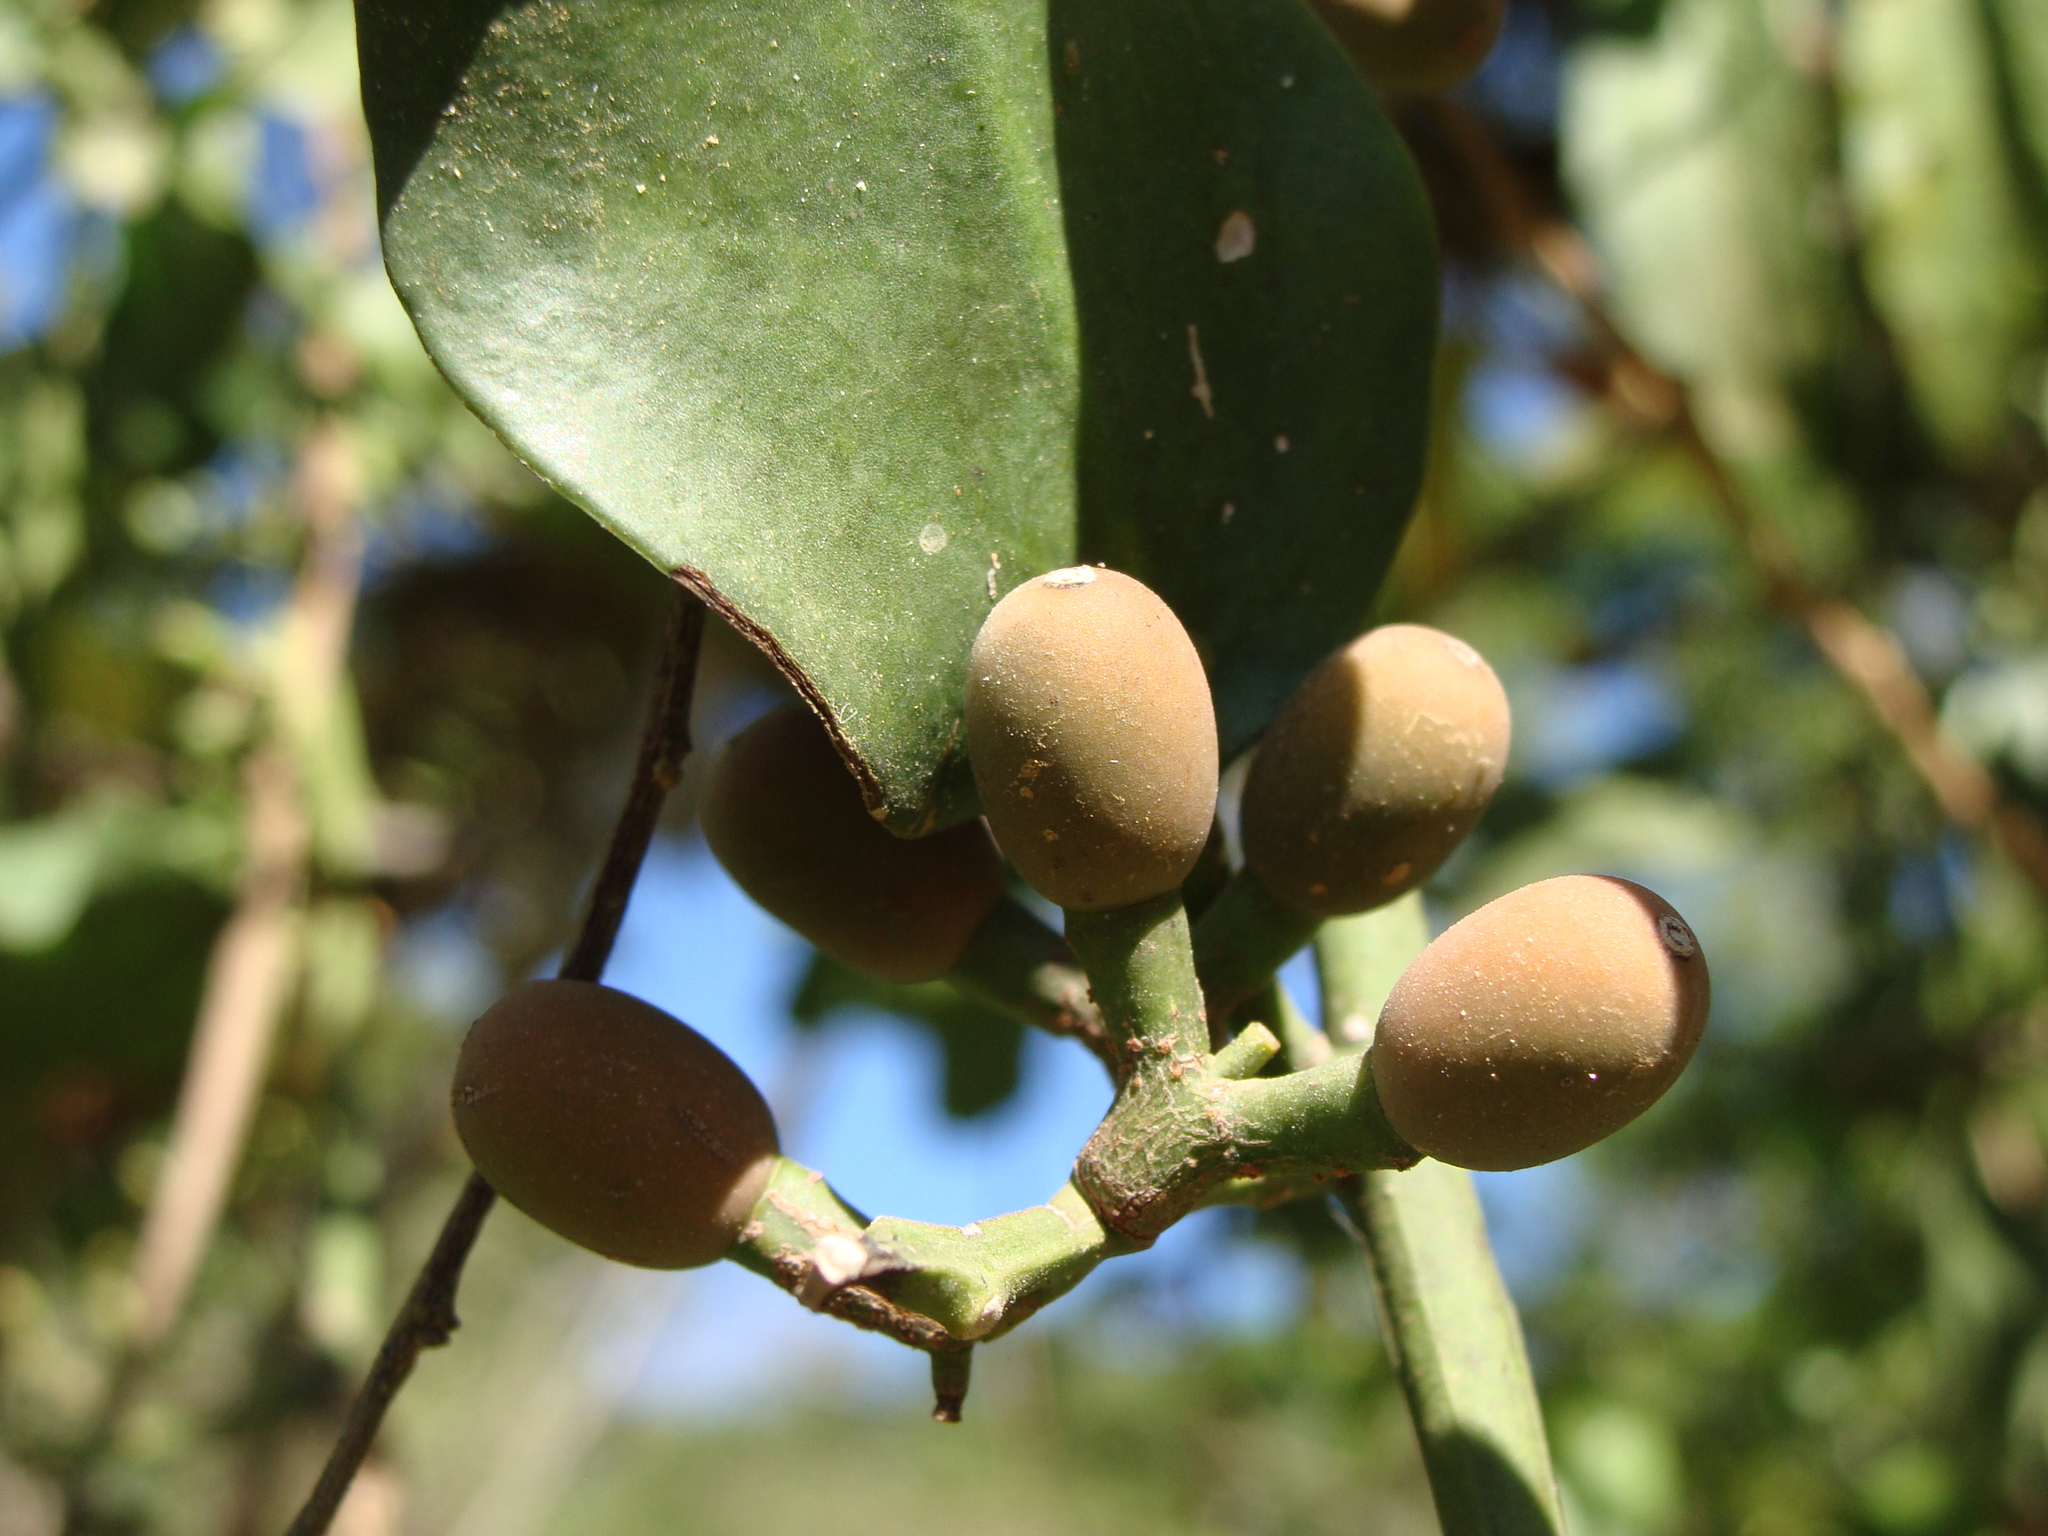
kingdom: Plantae
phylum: Tracheophyta
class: Magnoliopsida
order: Santalales
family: Loranthaceae
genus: Struthanthus
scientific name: Struthanthus orbicularis
